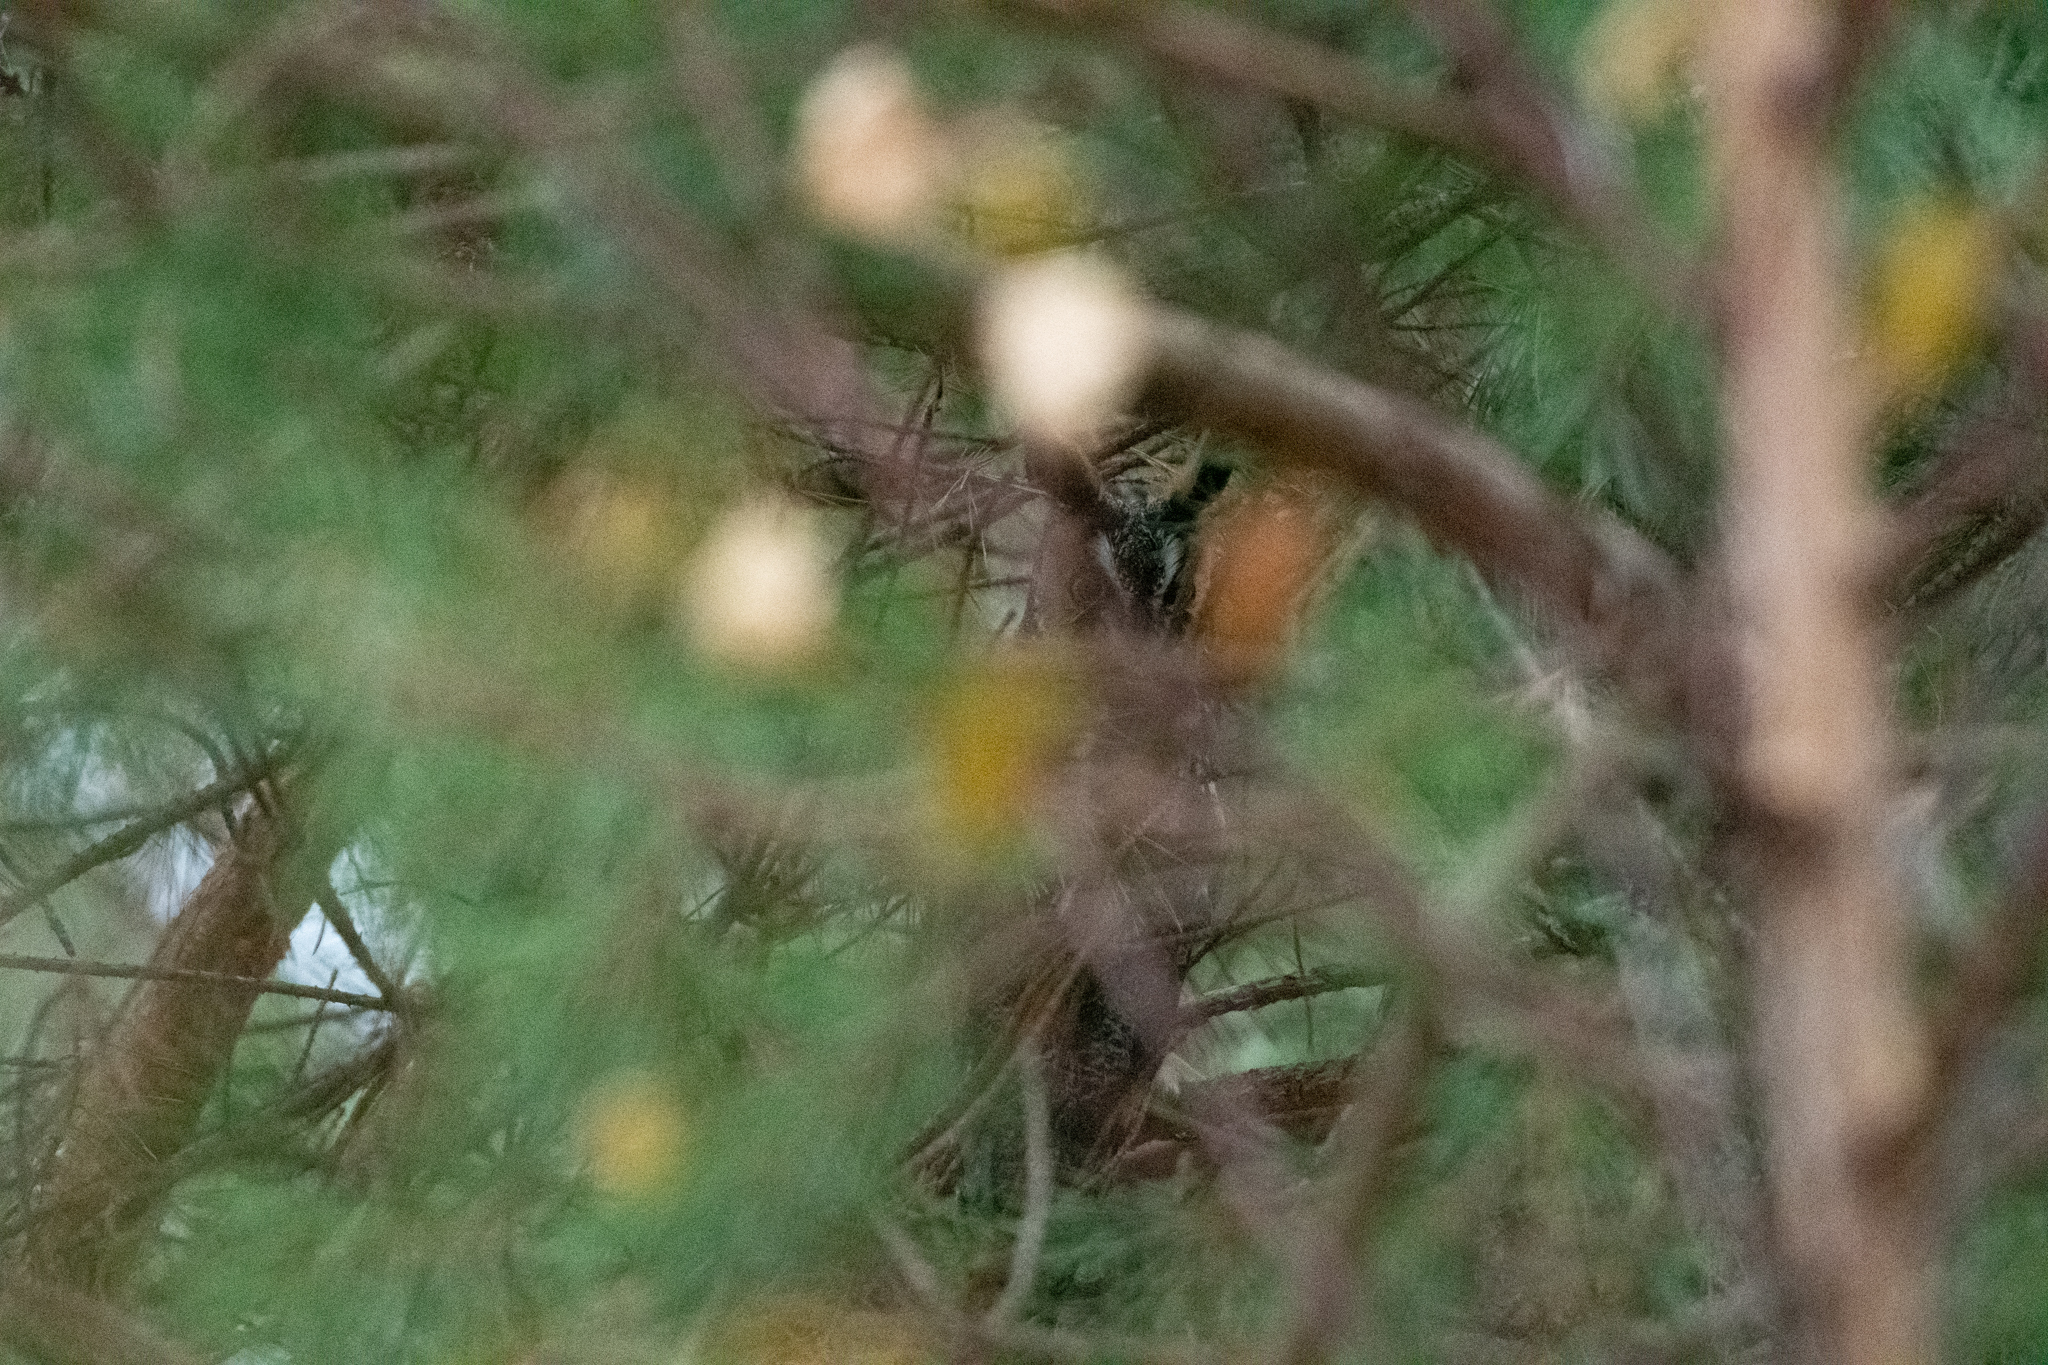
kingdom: Animalia
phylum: Chordata
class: Aves
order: Strigiformes
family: Strigidae
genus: Asio
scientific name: Asio otus
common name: Long-eared owl
